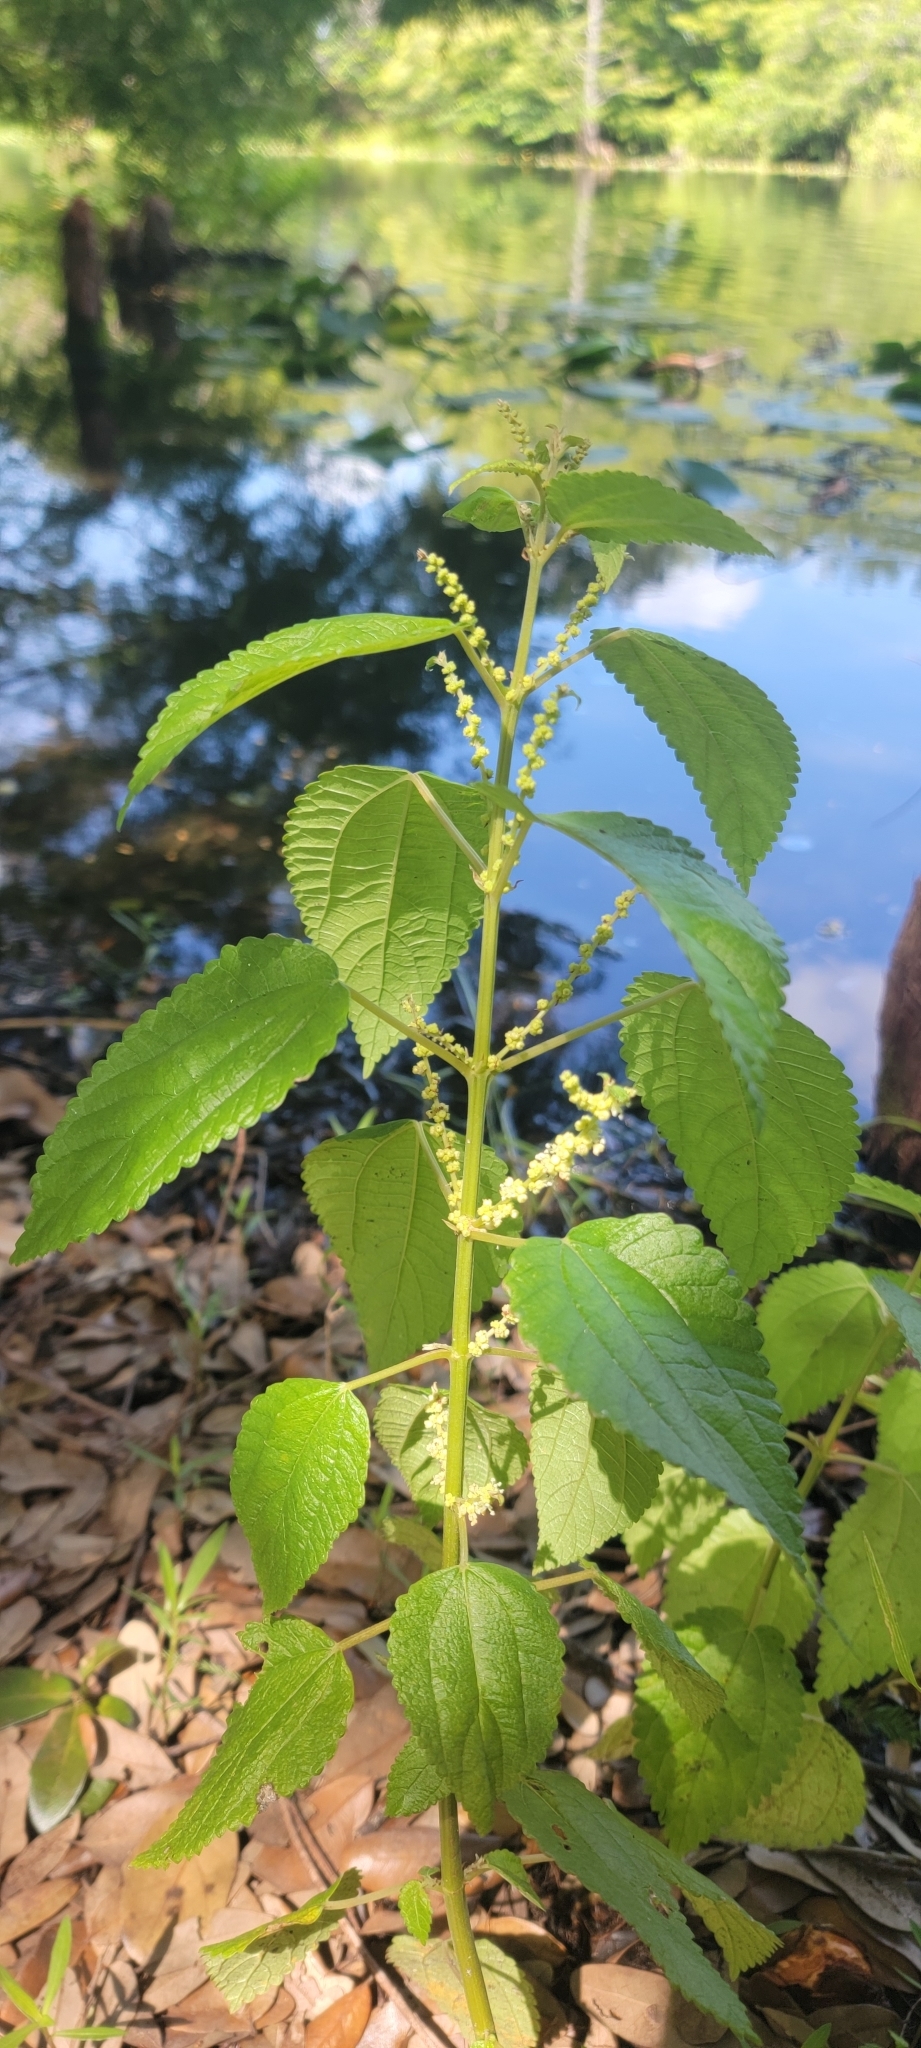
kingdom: Plantae
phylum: Tracheophyta
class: Magnoliopsida
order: Rosales
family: Urticaceae
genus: Boehmeria
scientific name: Boehmeria cylindrica
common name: Bog-hemp
